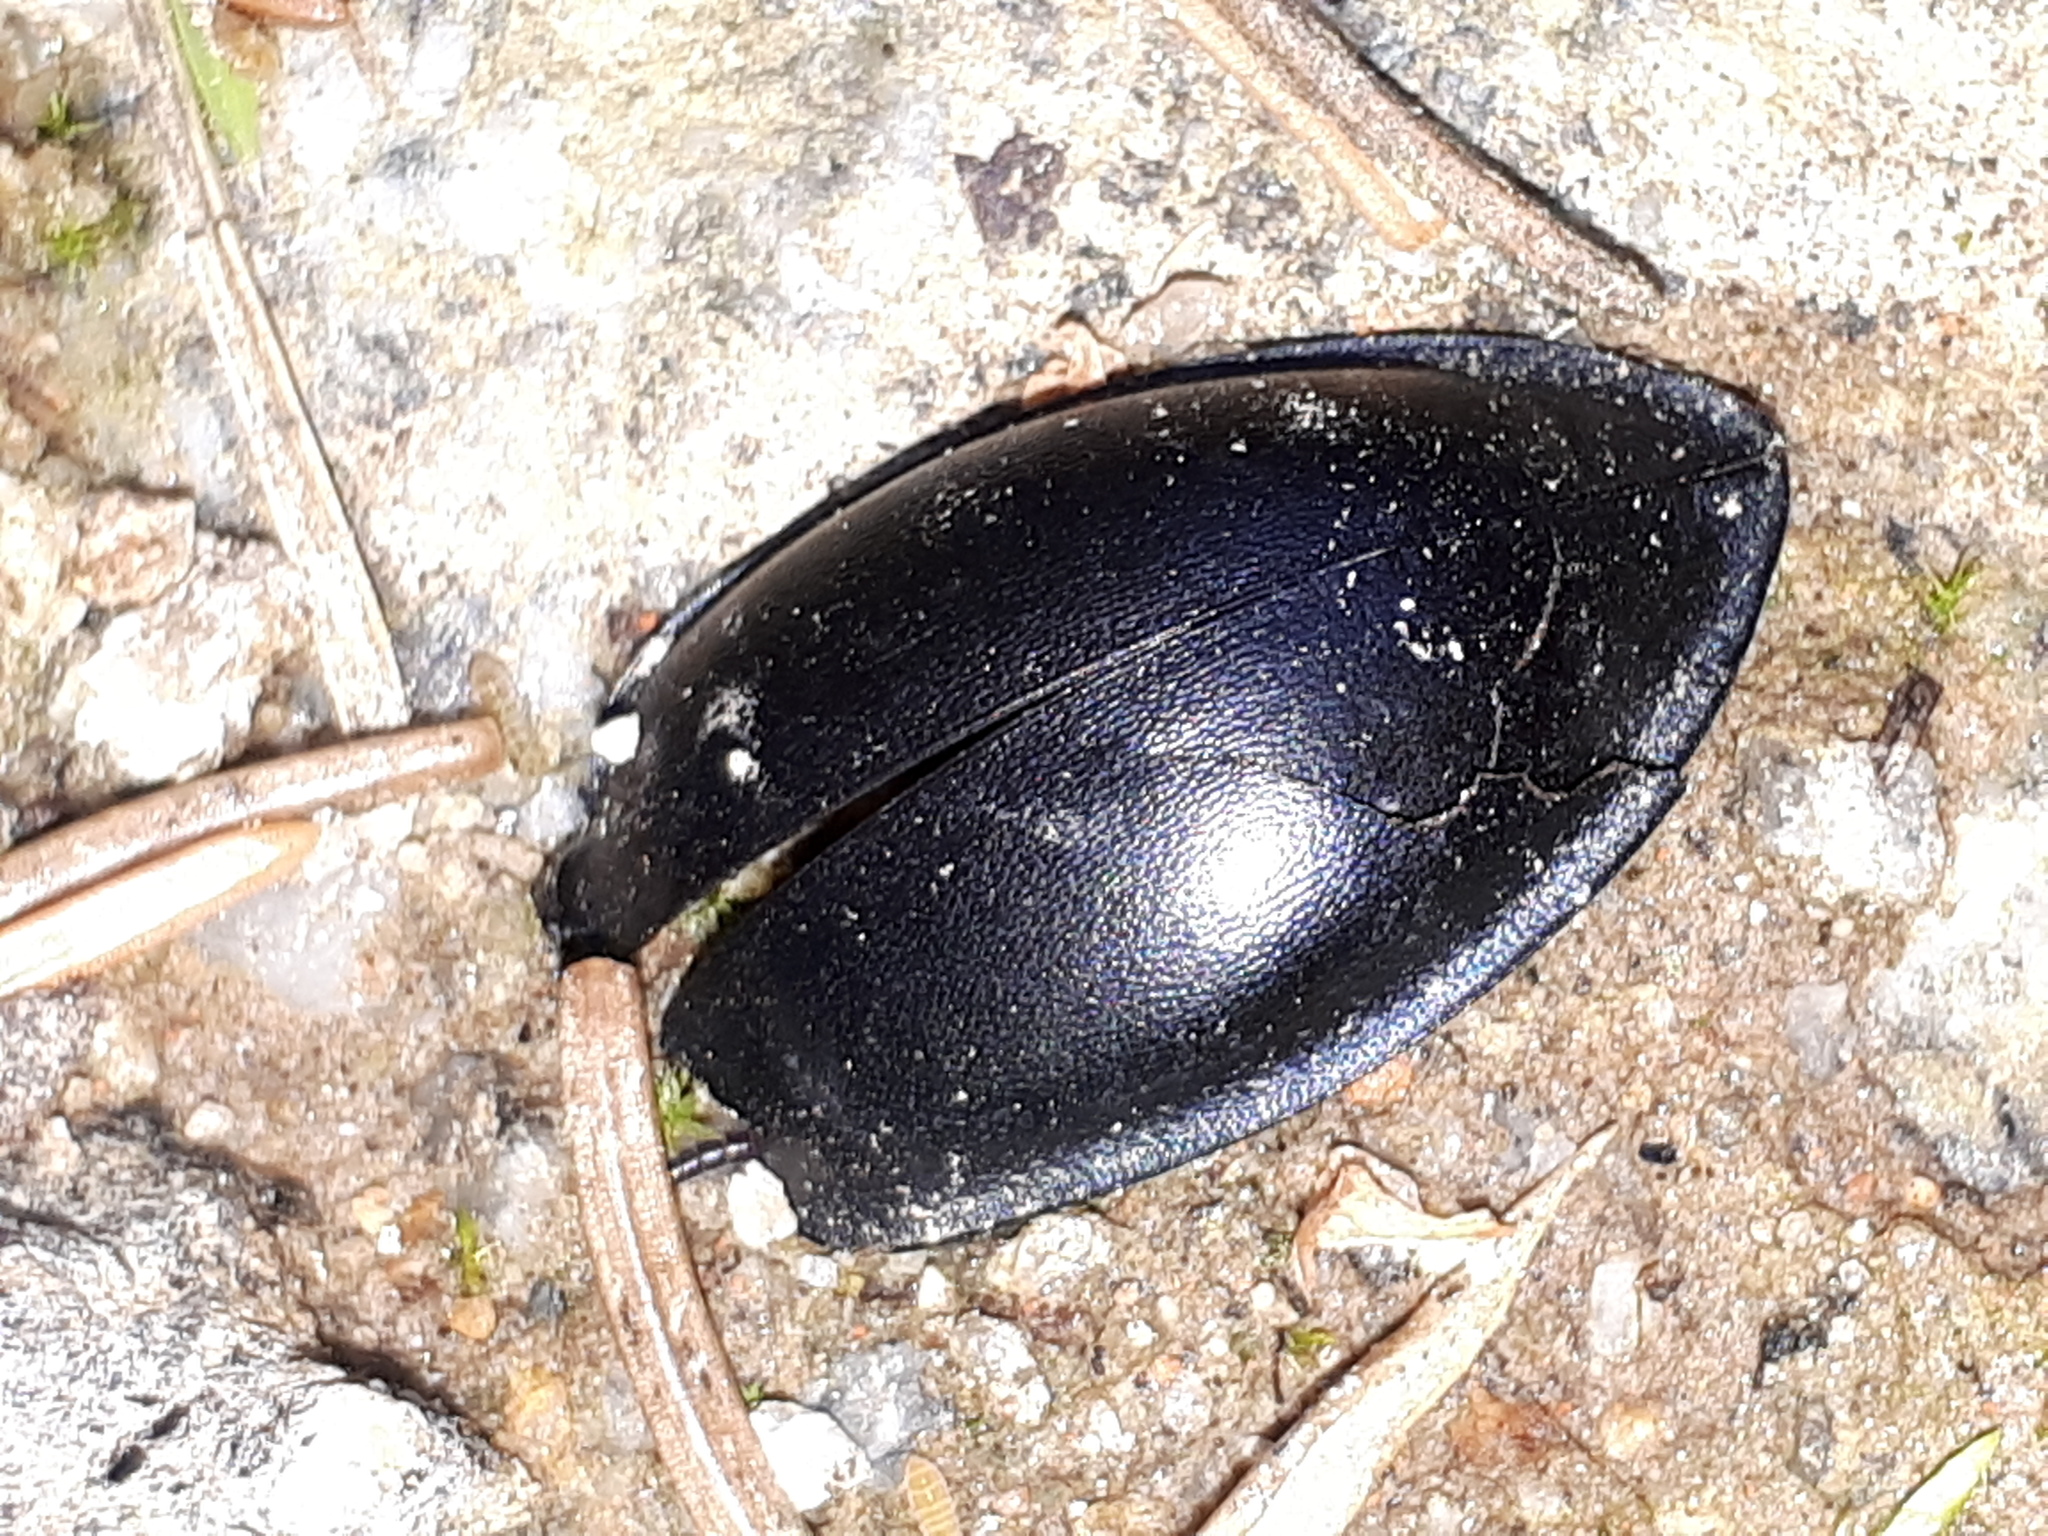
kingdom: Animalia
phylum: Arthropoda
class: Insecta
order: Coleoptera
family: Carabidae
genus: Carabus
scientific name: Carabus
